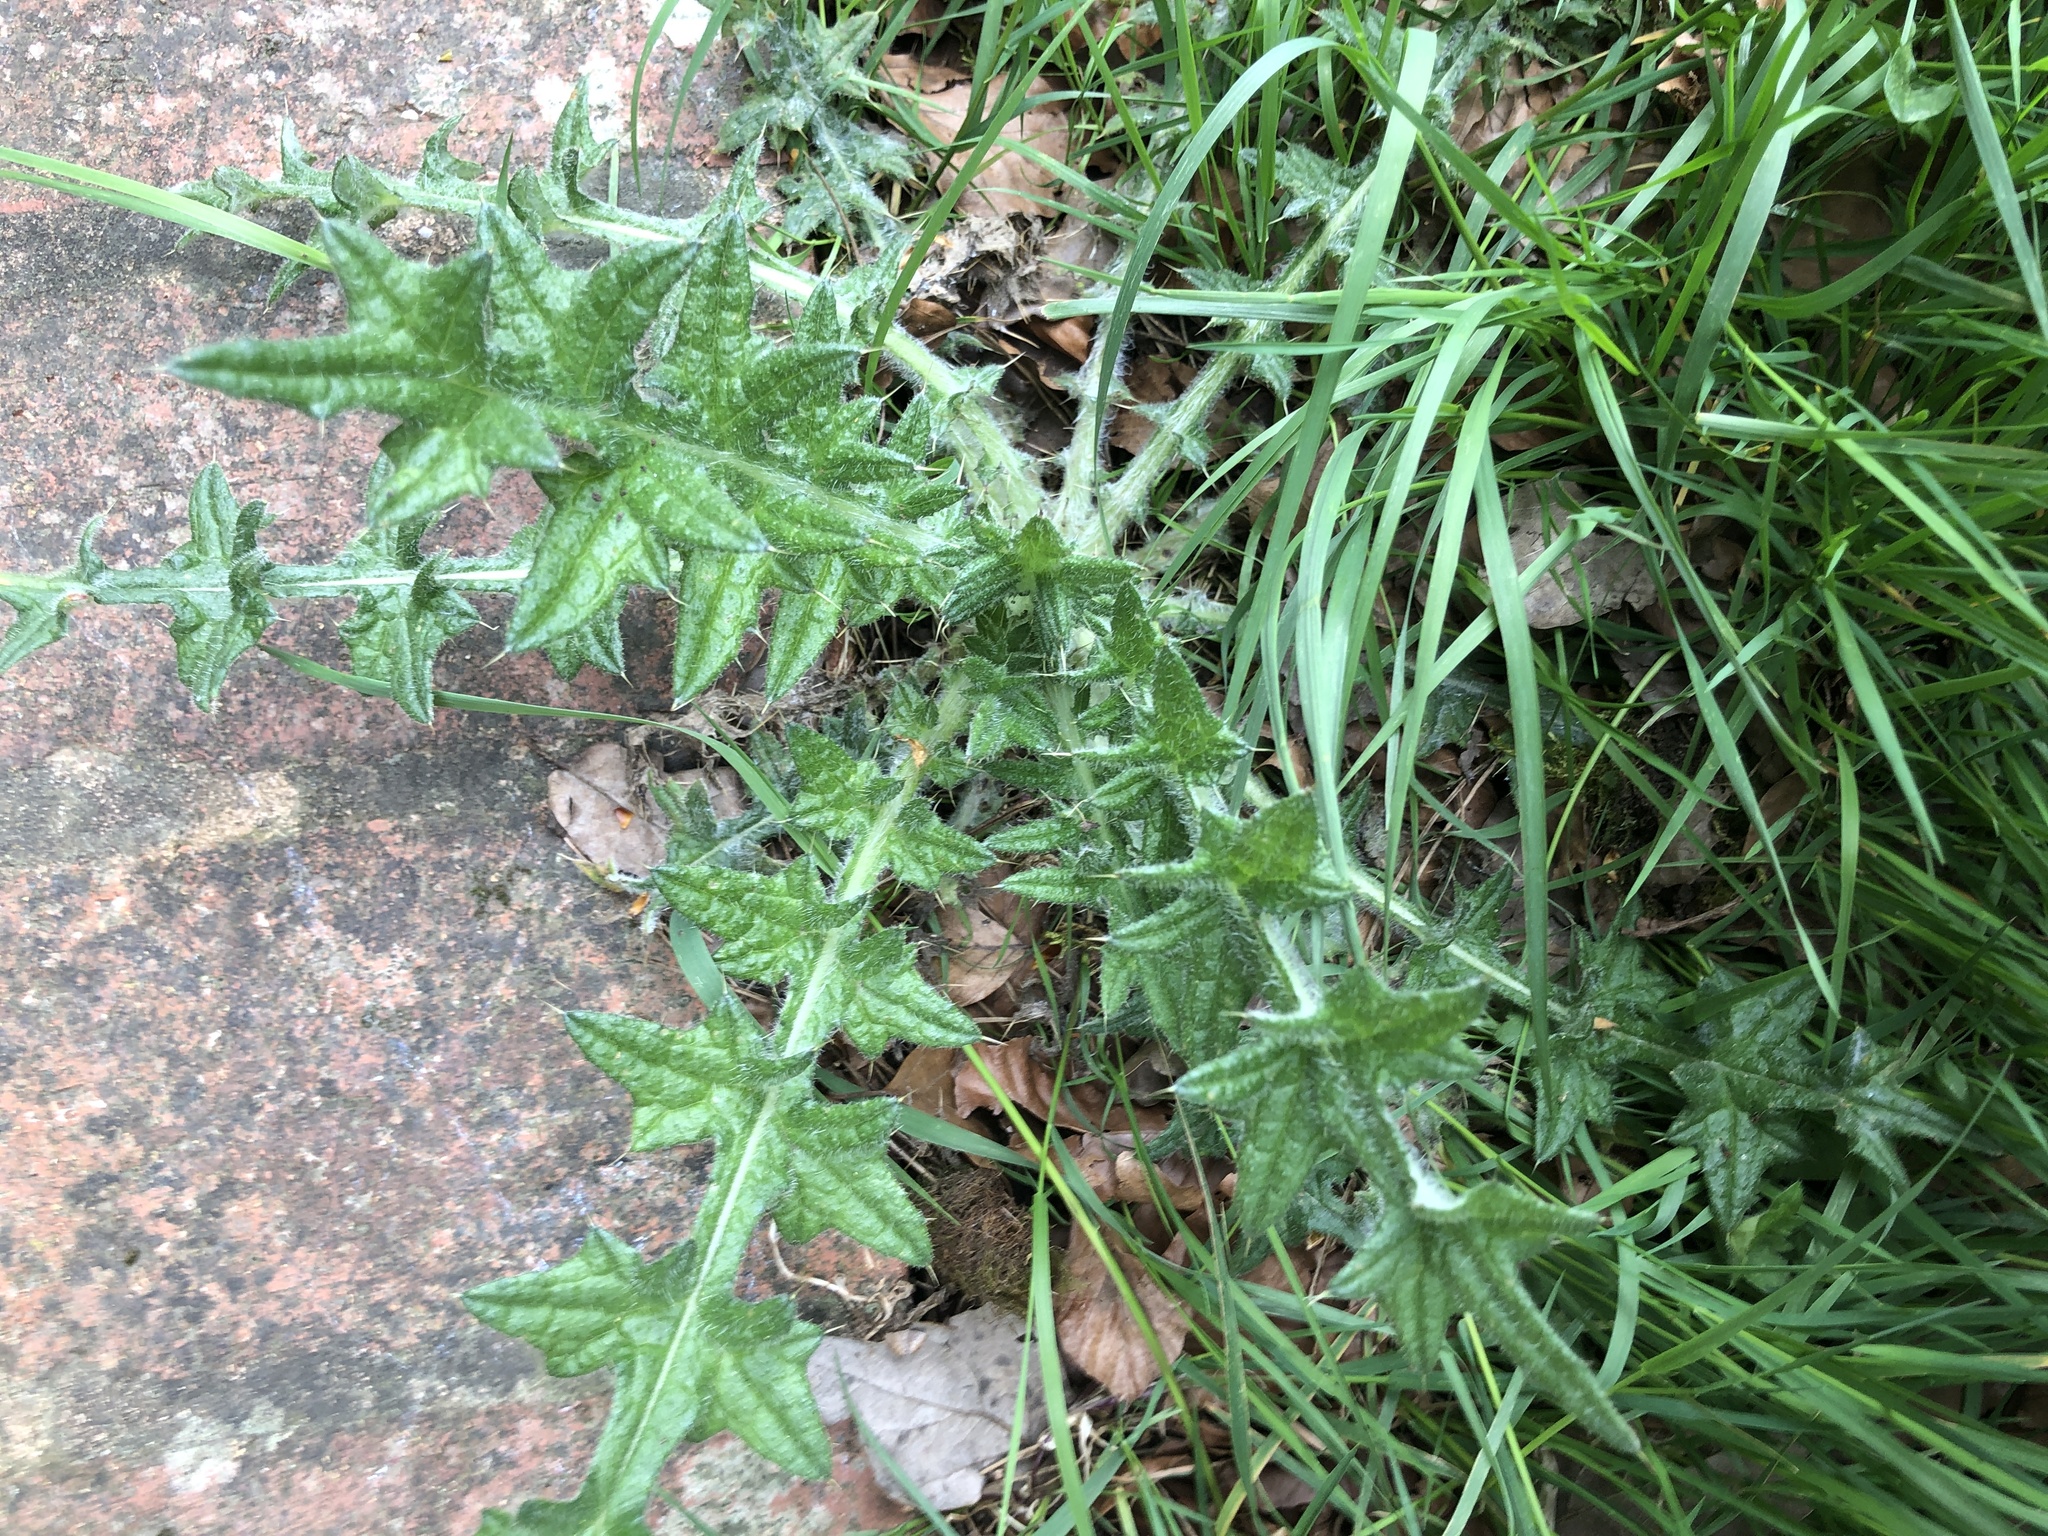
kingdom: Plantae
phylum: Tracheophyta
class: Magnoliopsida
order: Asterales
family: Asteraceae
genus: Cirsium
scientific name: Cirsium vulgare
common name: Bull thistle
